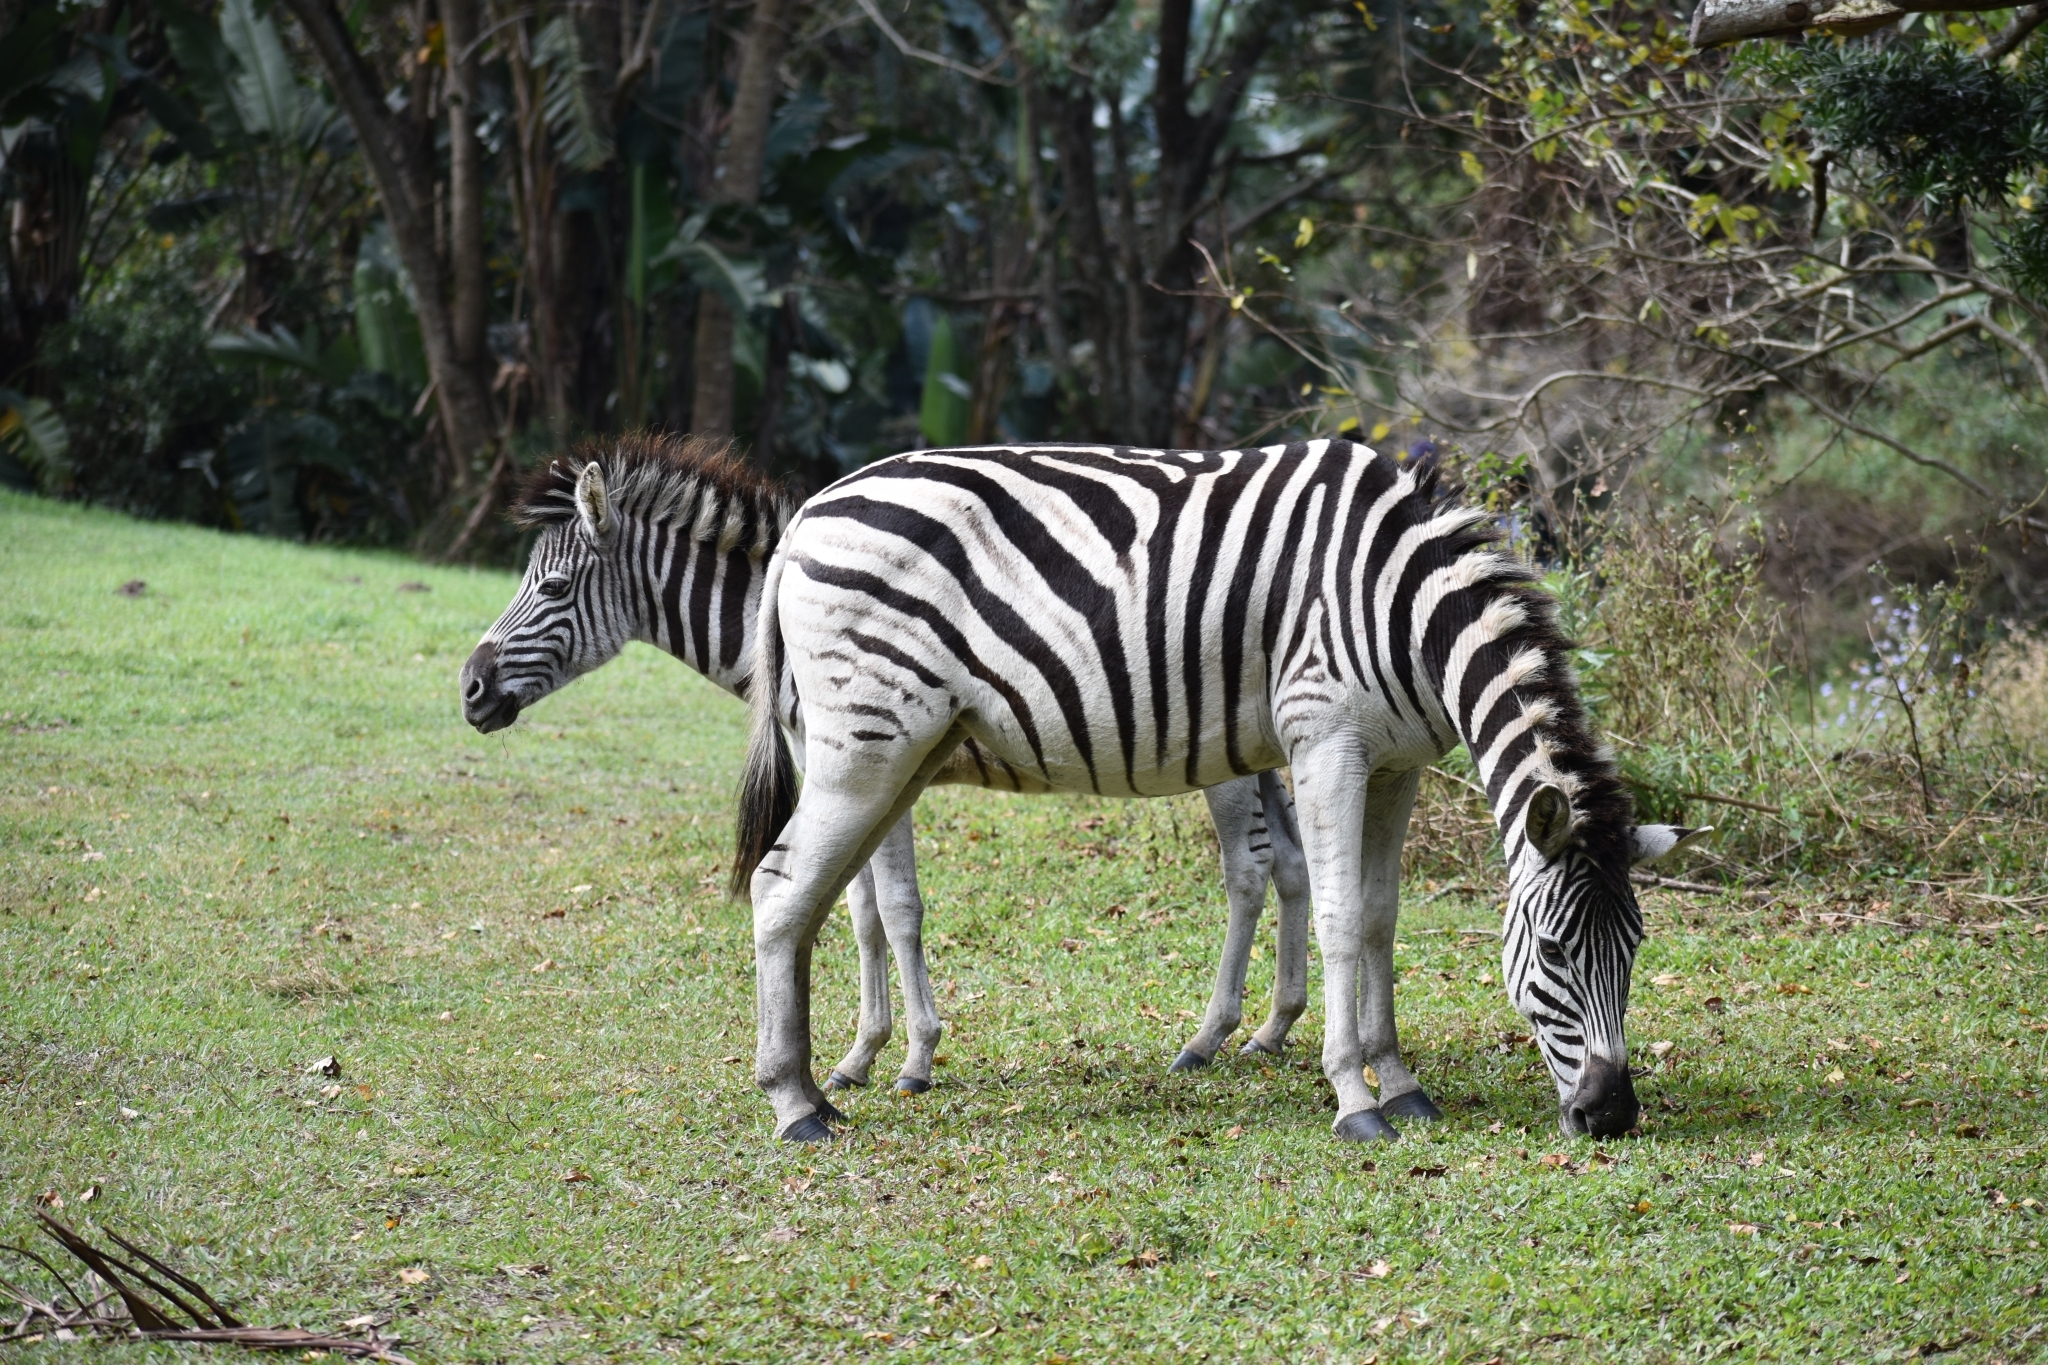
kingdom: Animalia
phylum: Chordata
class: Mammalia
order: Perissodactyla
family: Equidae
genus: Equus
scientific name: Equus quagga
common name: Plains zebra
